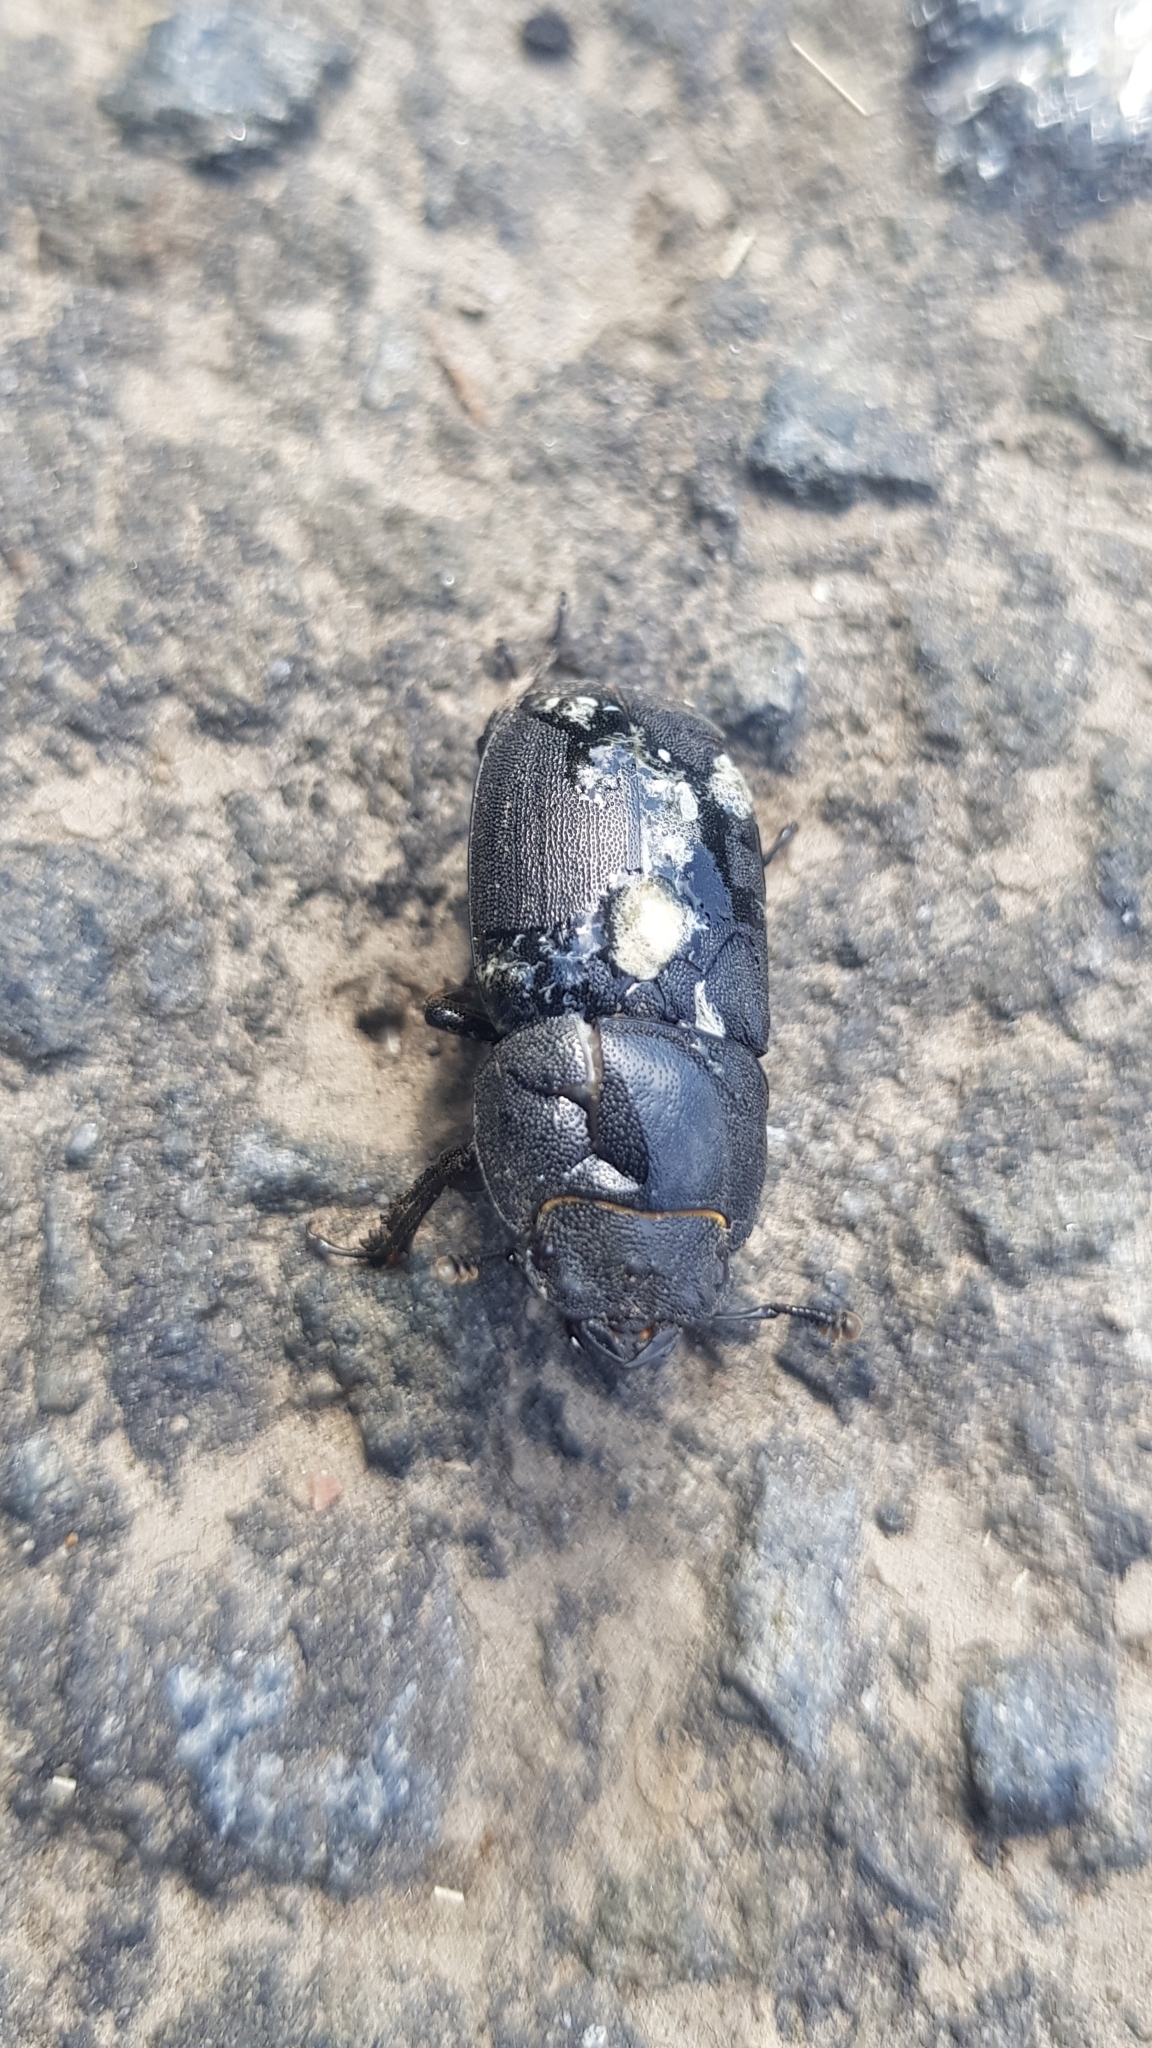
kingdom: Animalia
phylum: Arthropoda
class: Insecta
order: Coleoptera
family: Lucanidae
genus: Dorcus
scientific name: Dorcus parallelipipedus
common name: Lesser stag beetle
